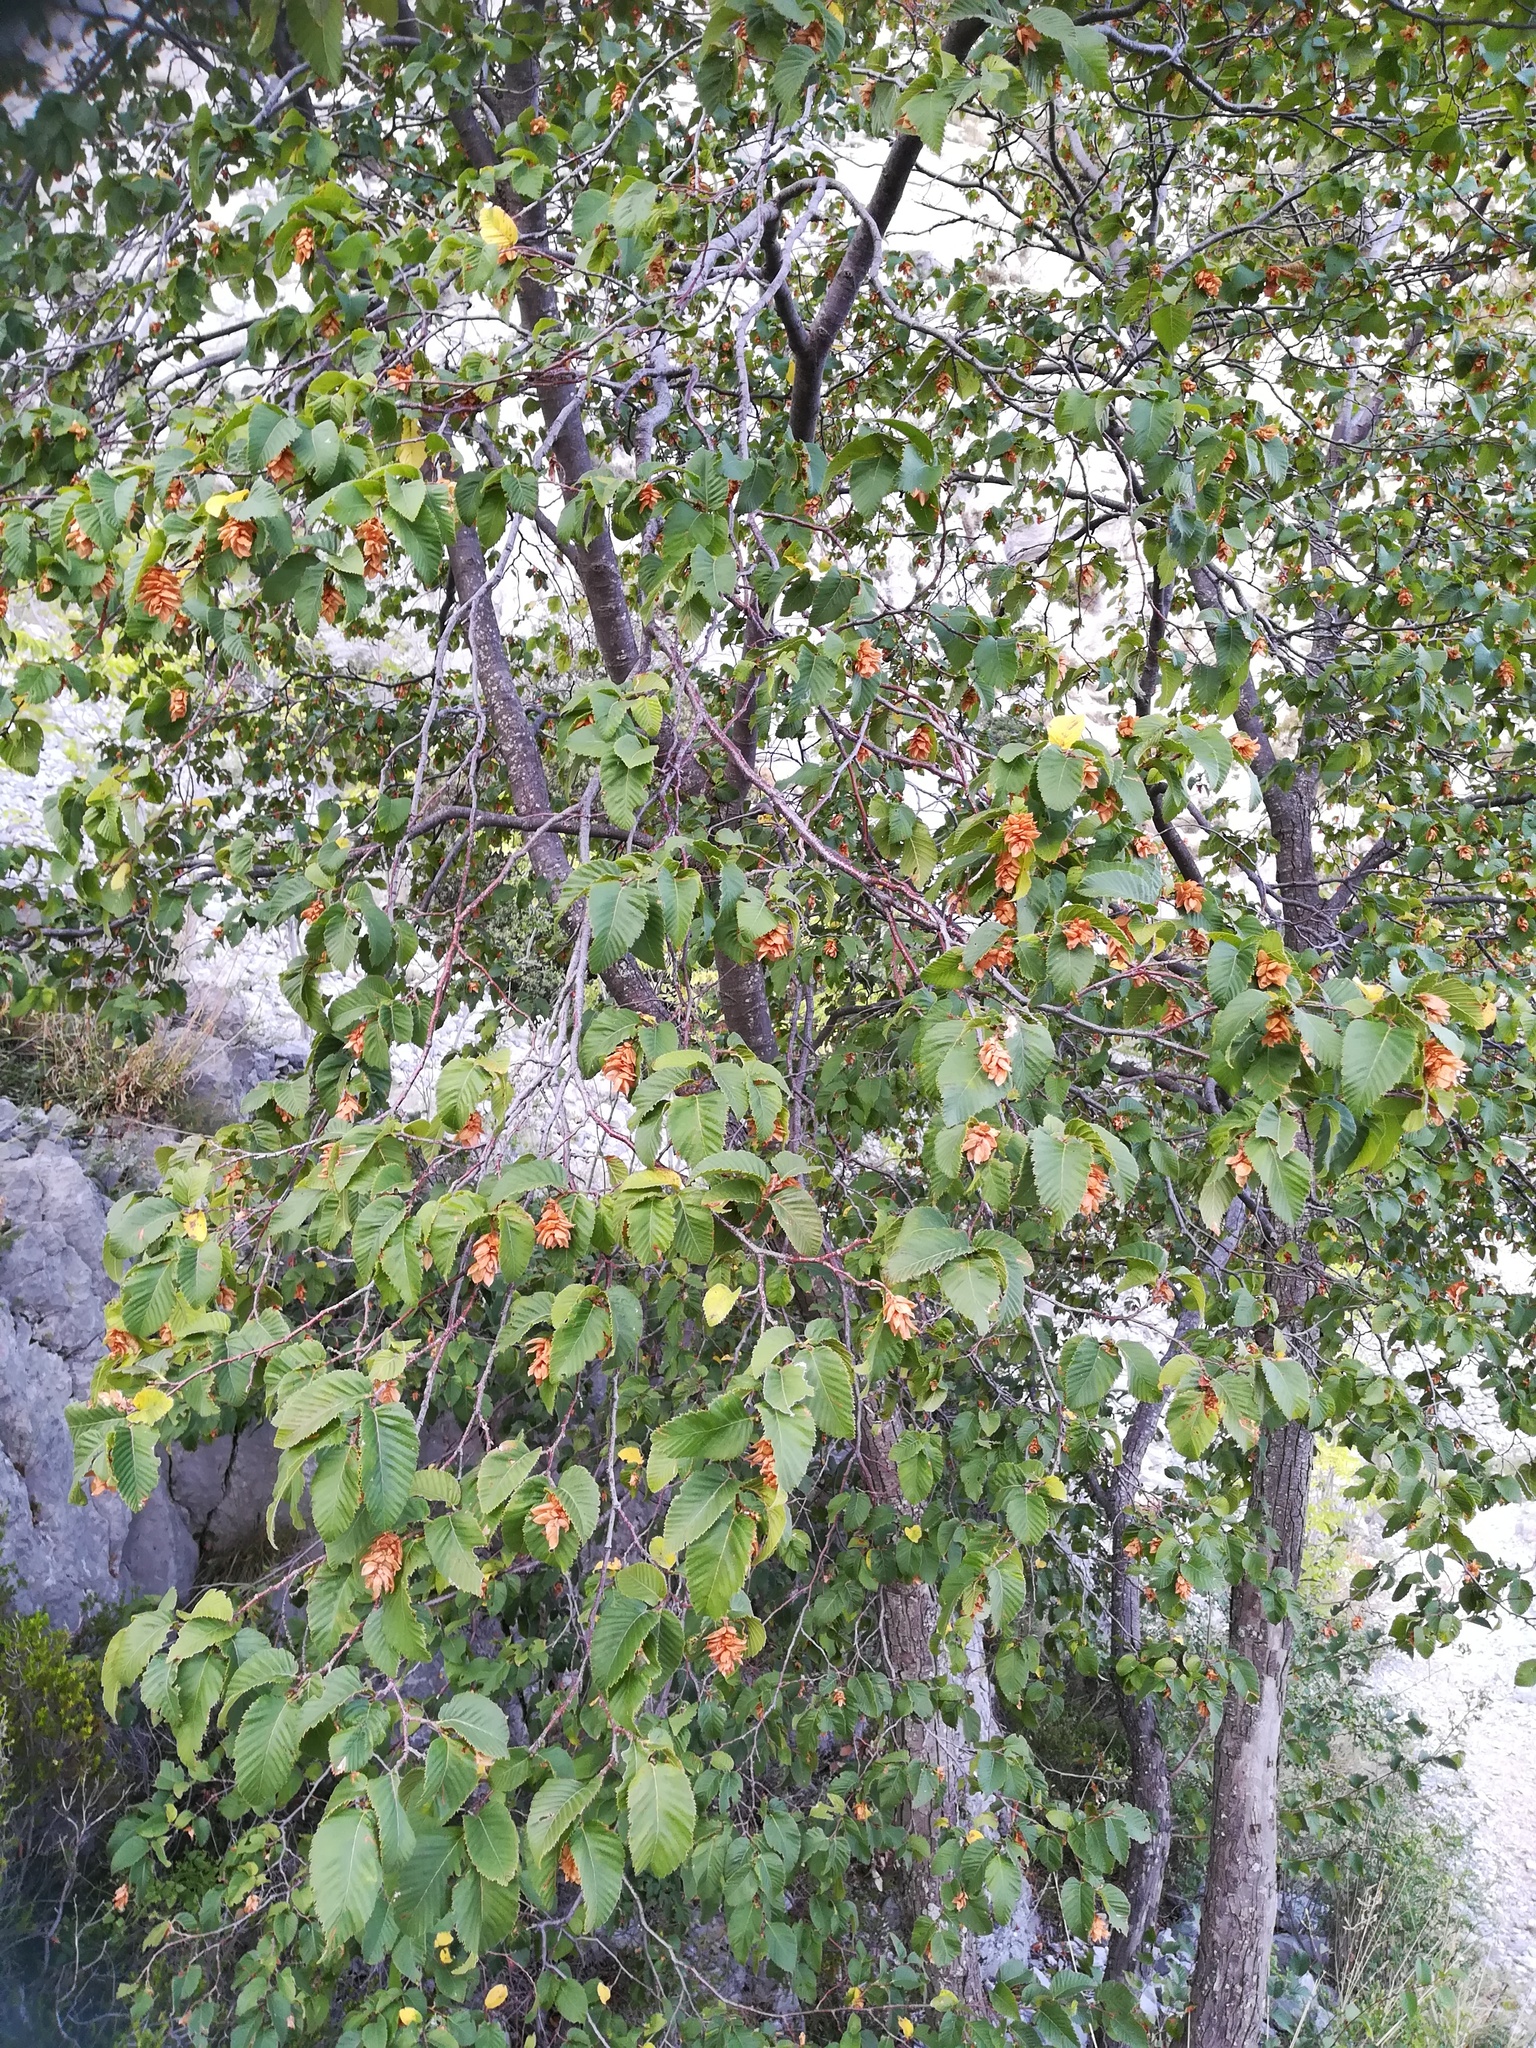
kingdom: Plantae
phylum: Tracheophyta
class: Magnoliopsida
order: Fagales
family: Betulaceae
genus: Ostrya
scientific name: Ostrya carpinifolia
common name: European hop-hornbeam
